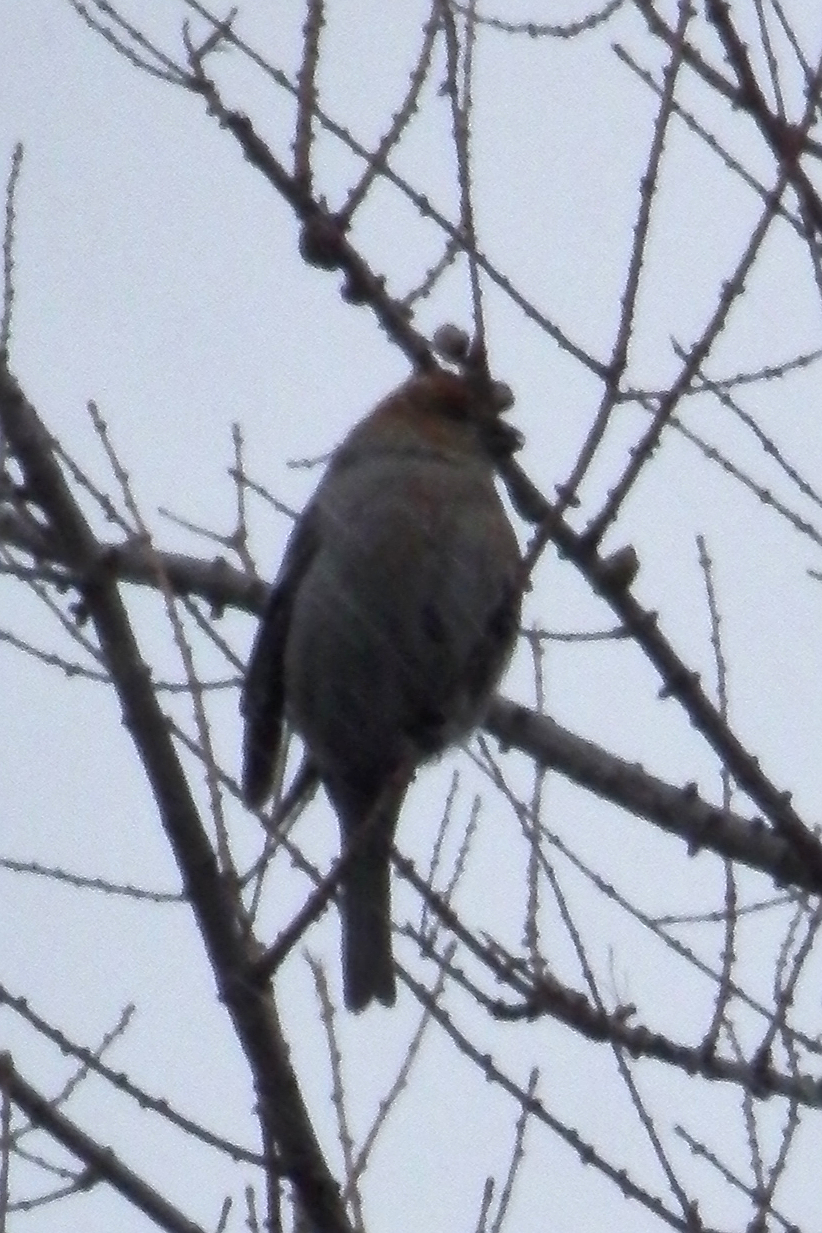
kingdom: Animalia
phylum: Chordata
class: Aves
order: Passeriformes
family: Fringillidae
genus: Pinicola
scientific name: Pinicola enucleator
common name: Pine grosbeak
